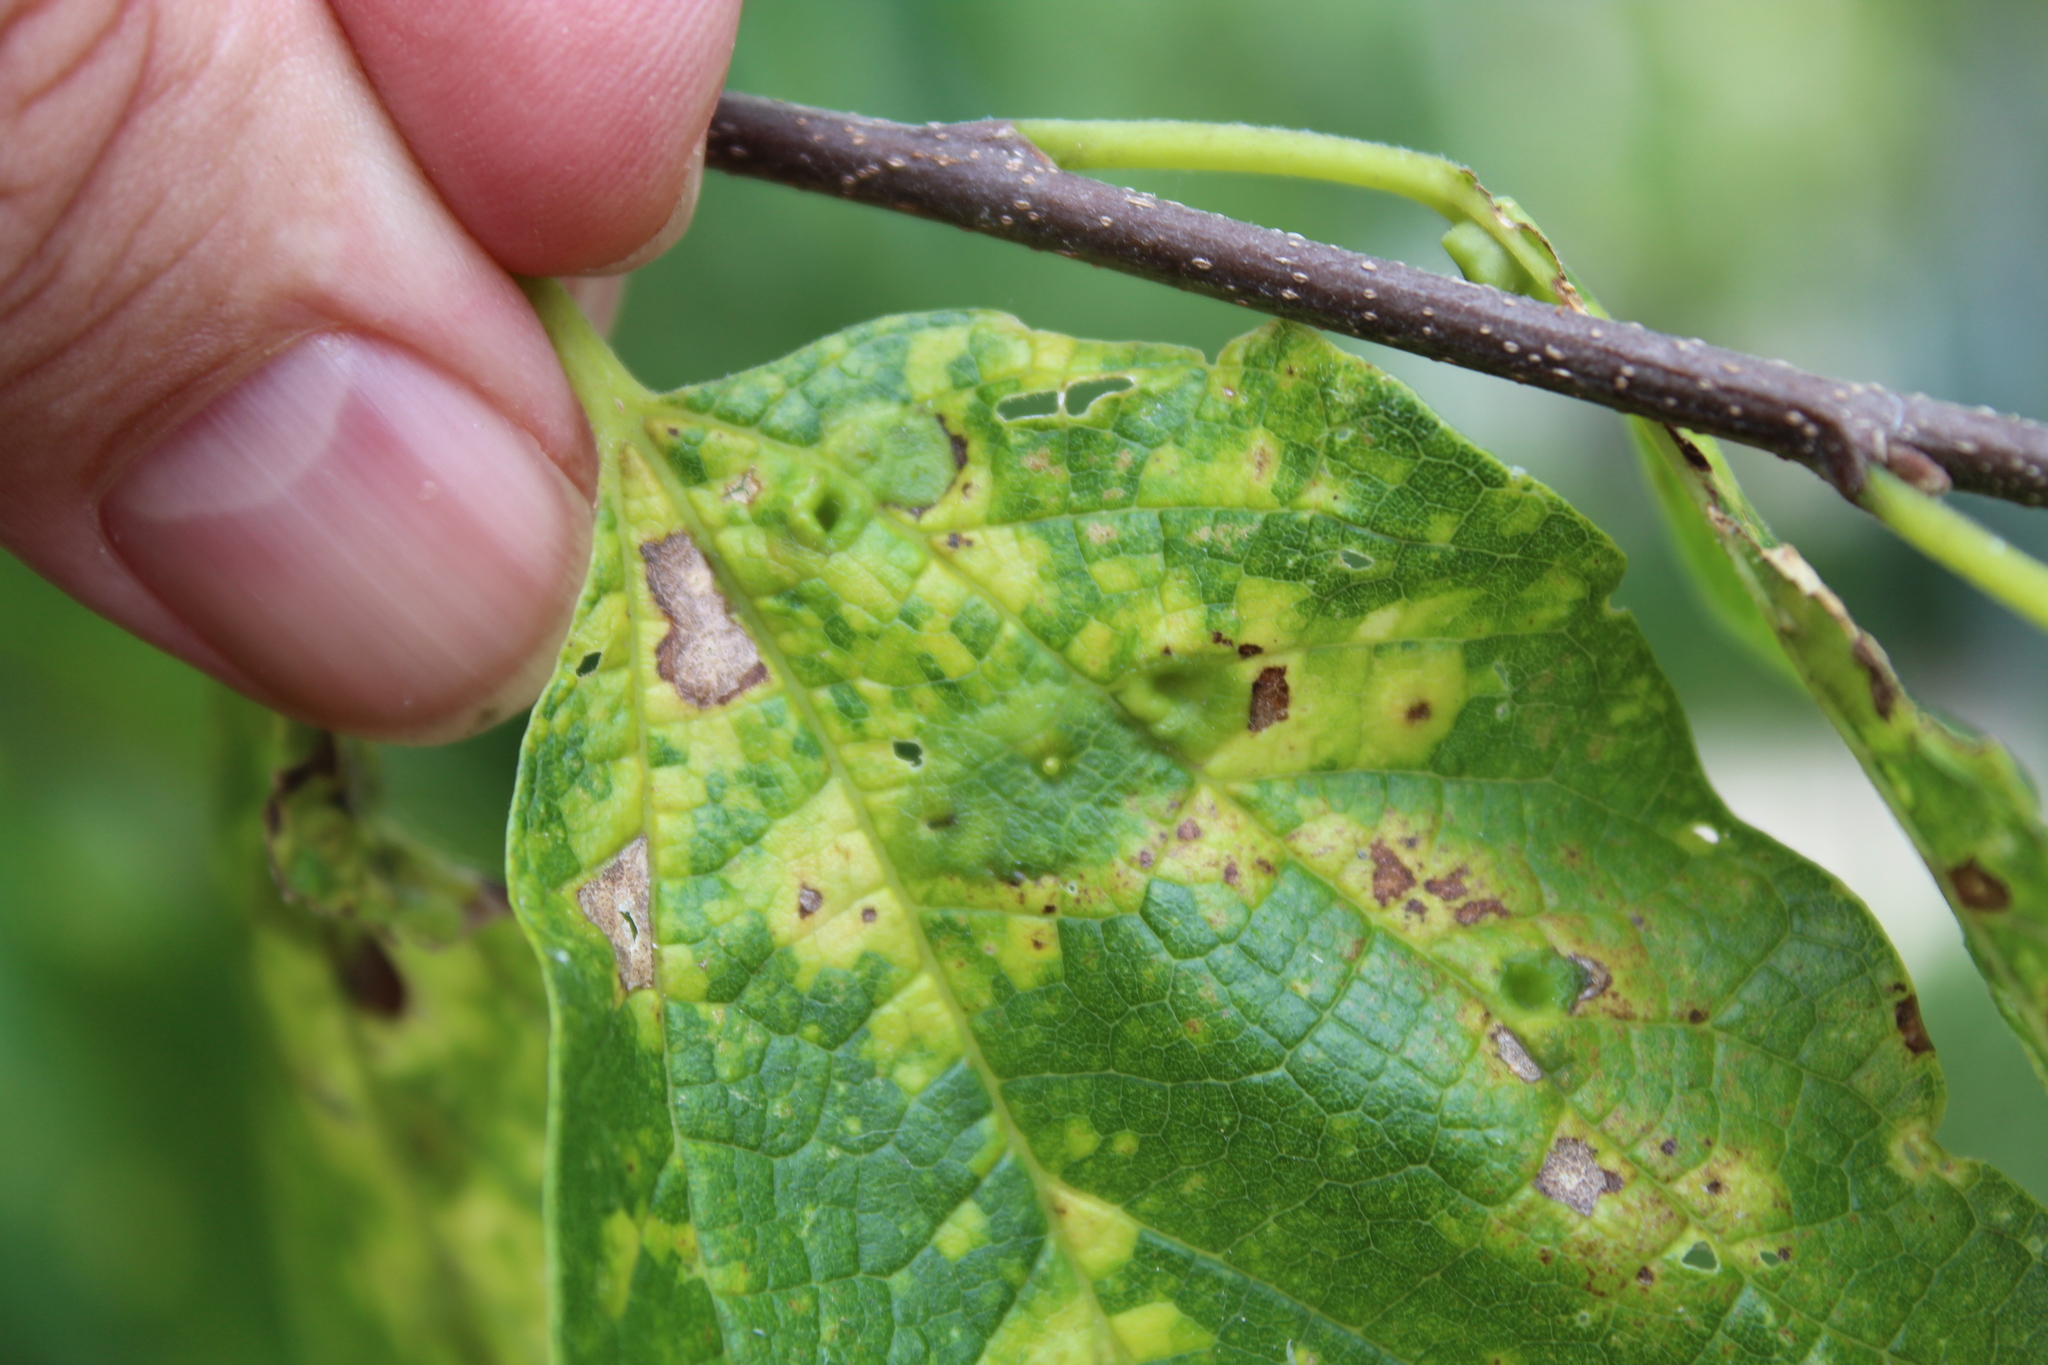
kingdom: Animalia
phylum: Arthropoda
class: Insecta
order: Hemiptera
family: Aphalaridae
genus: Pachypsylla
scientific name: Pachypsylla celtidismamma
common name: Hackberry nipplegall psyllid
